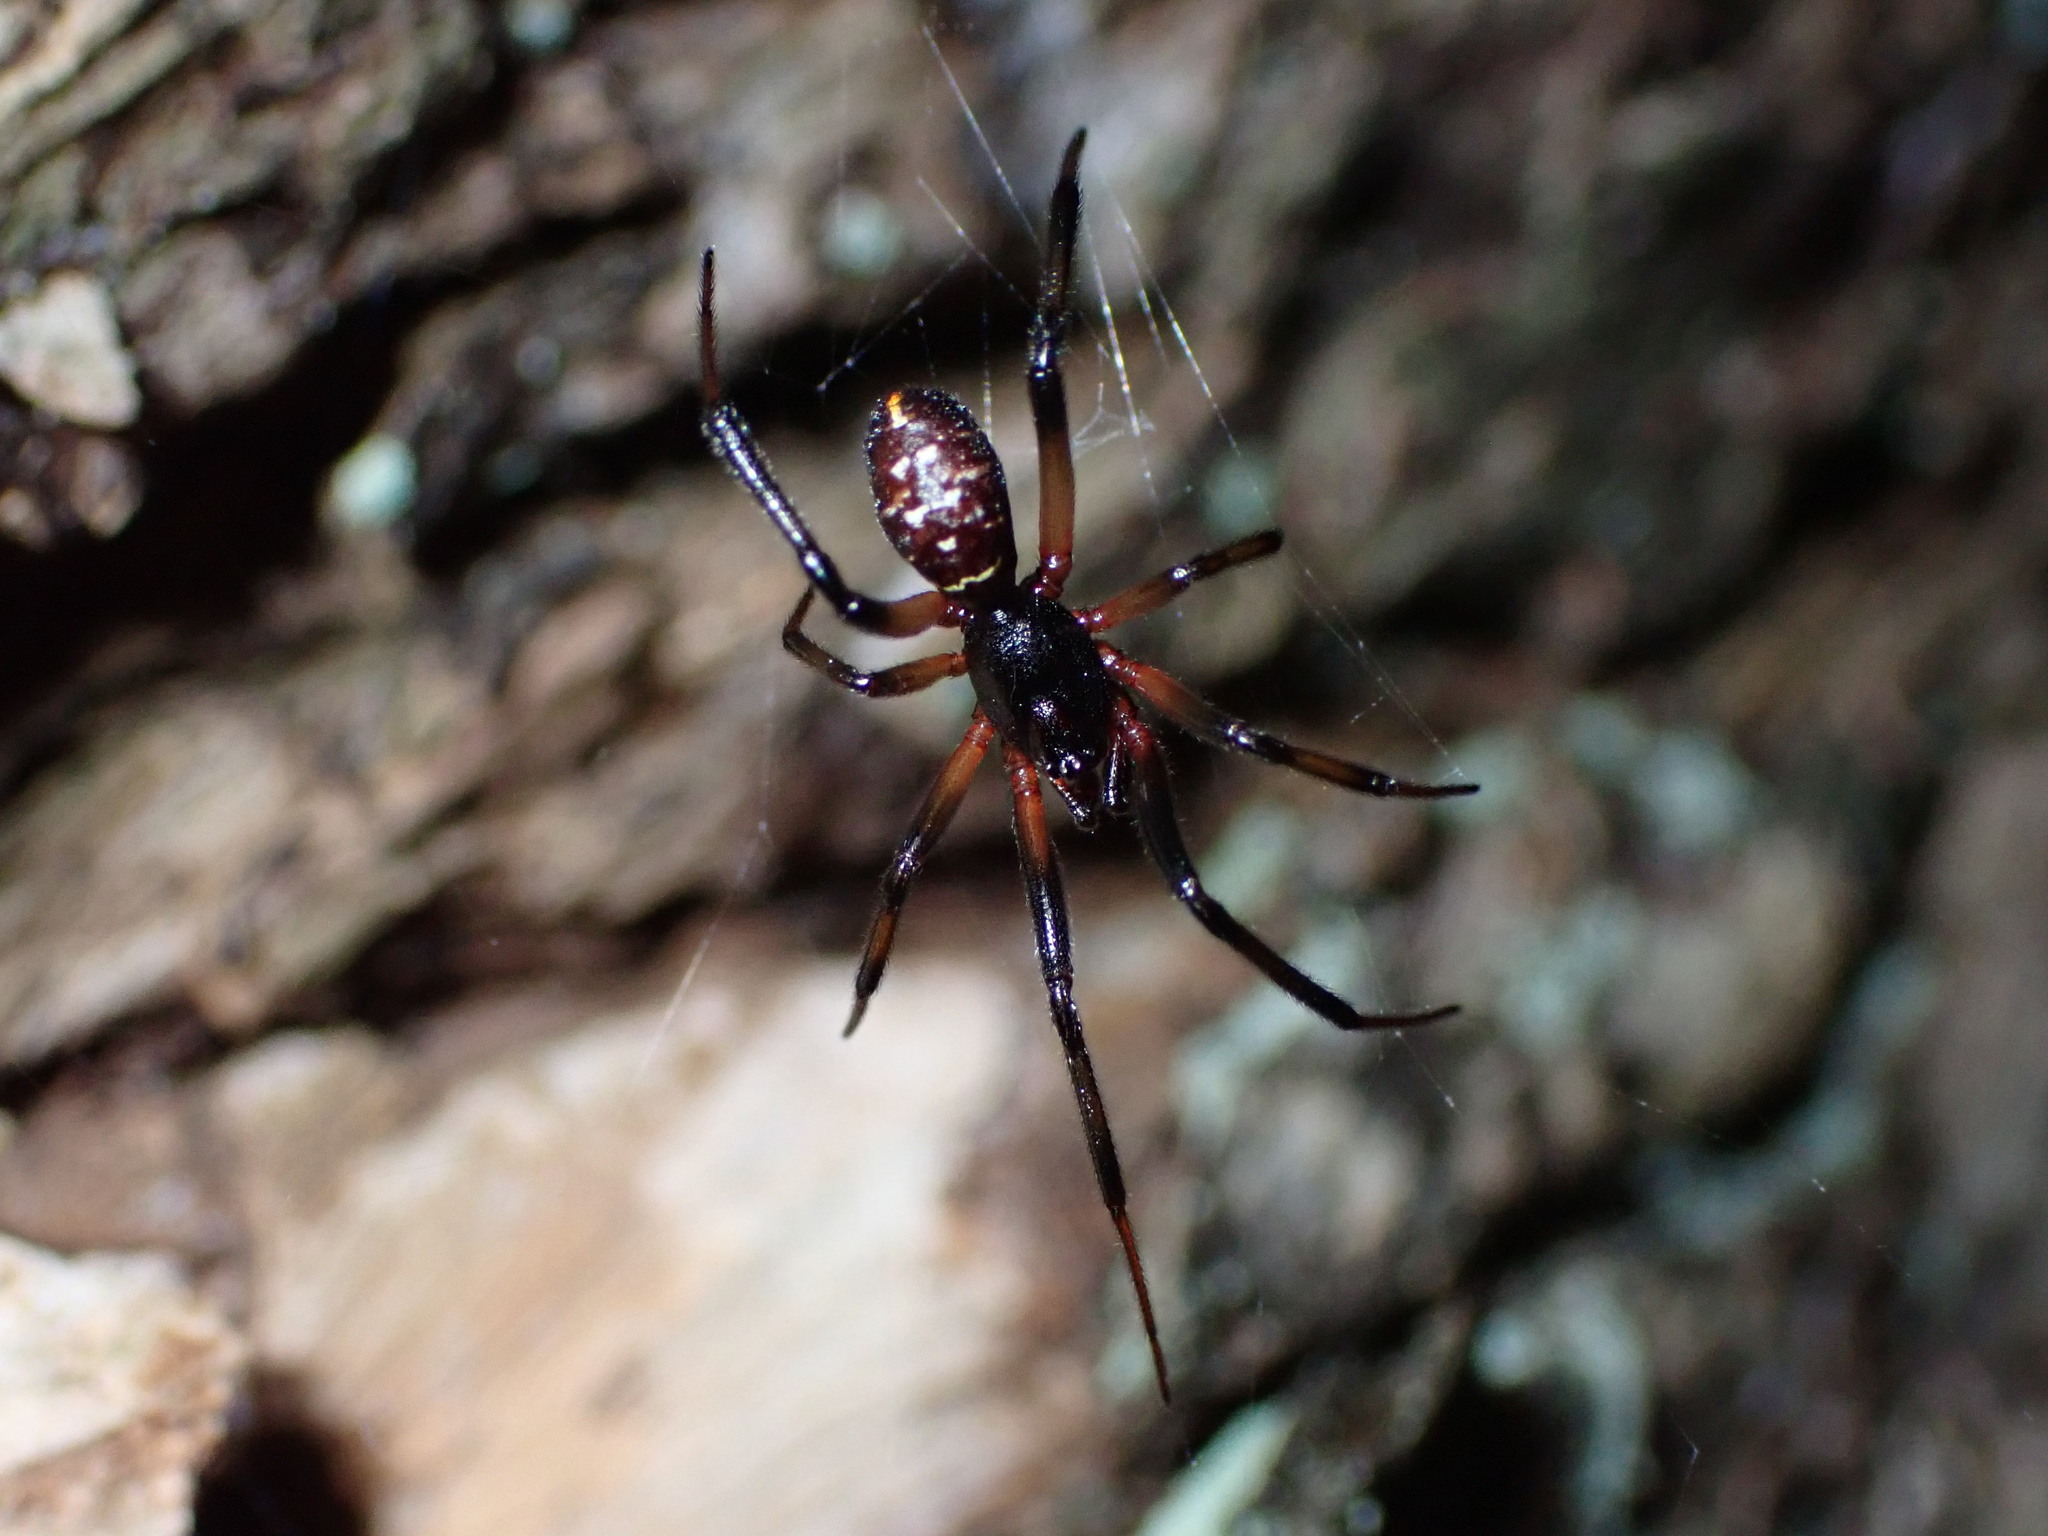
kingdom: Animalia
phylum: Arthropoda
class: Arachnida
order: Araneae
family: Theridiidae
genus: Steatoda
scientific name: Steatoda capensis
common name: Cobweb weaver
